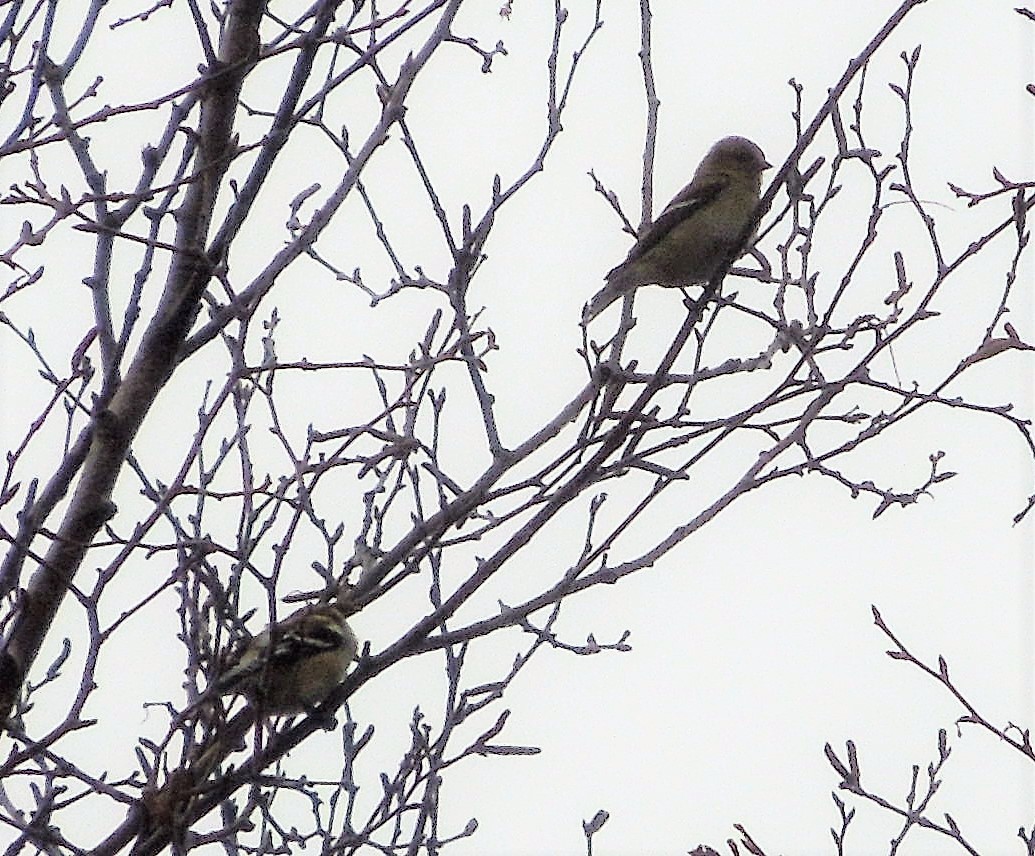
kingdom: Animalia
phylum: Chordata
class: Aves
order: Passeriformes
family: Fringillidae
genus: Spinus
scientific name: Spinus tristis
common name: American goldfinch
